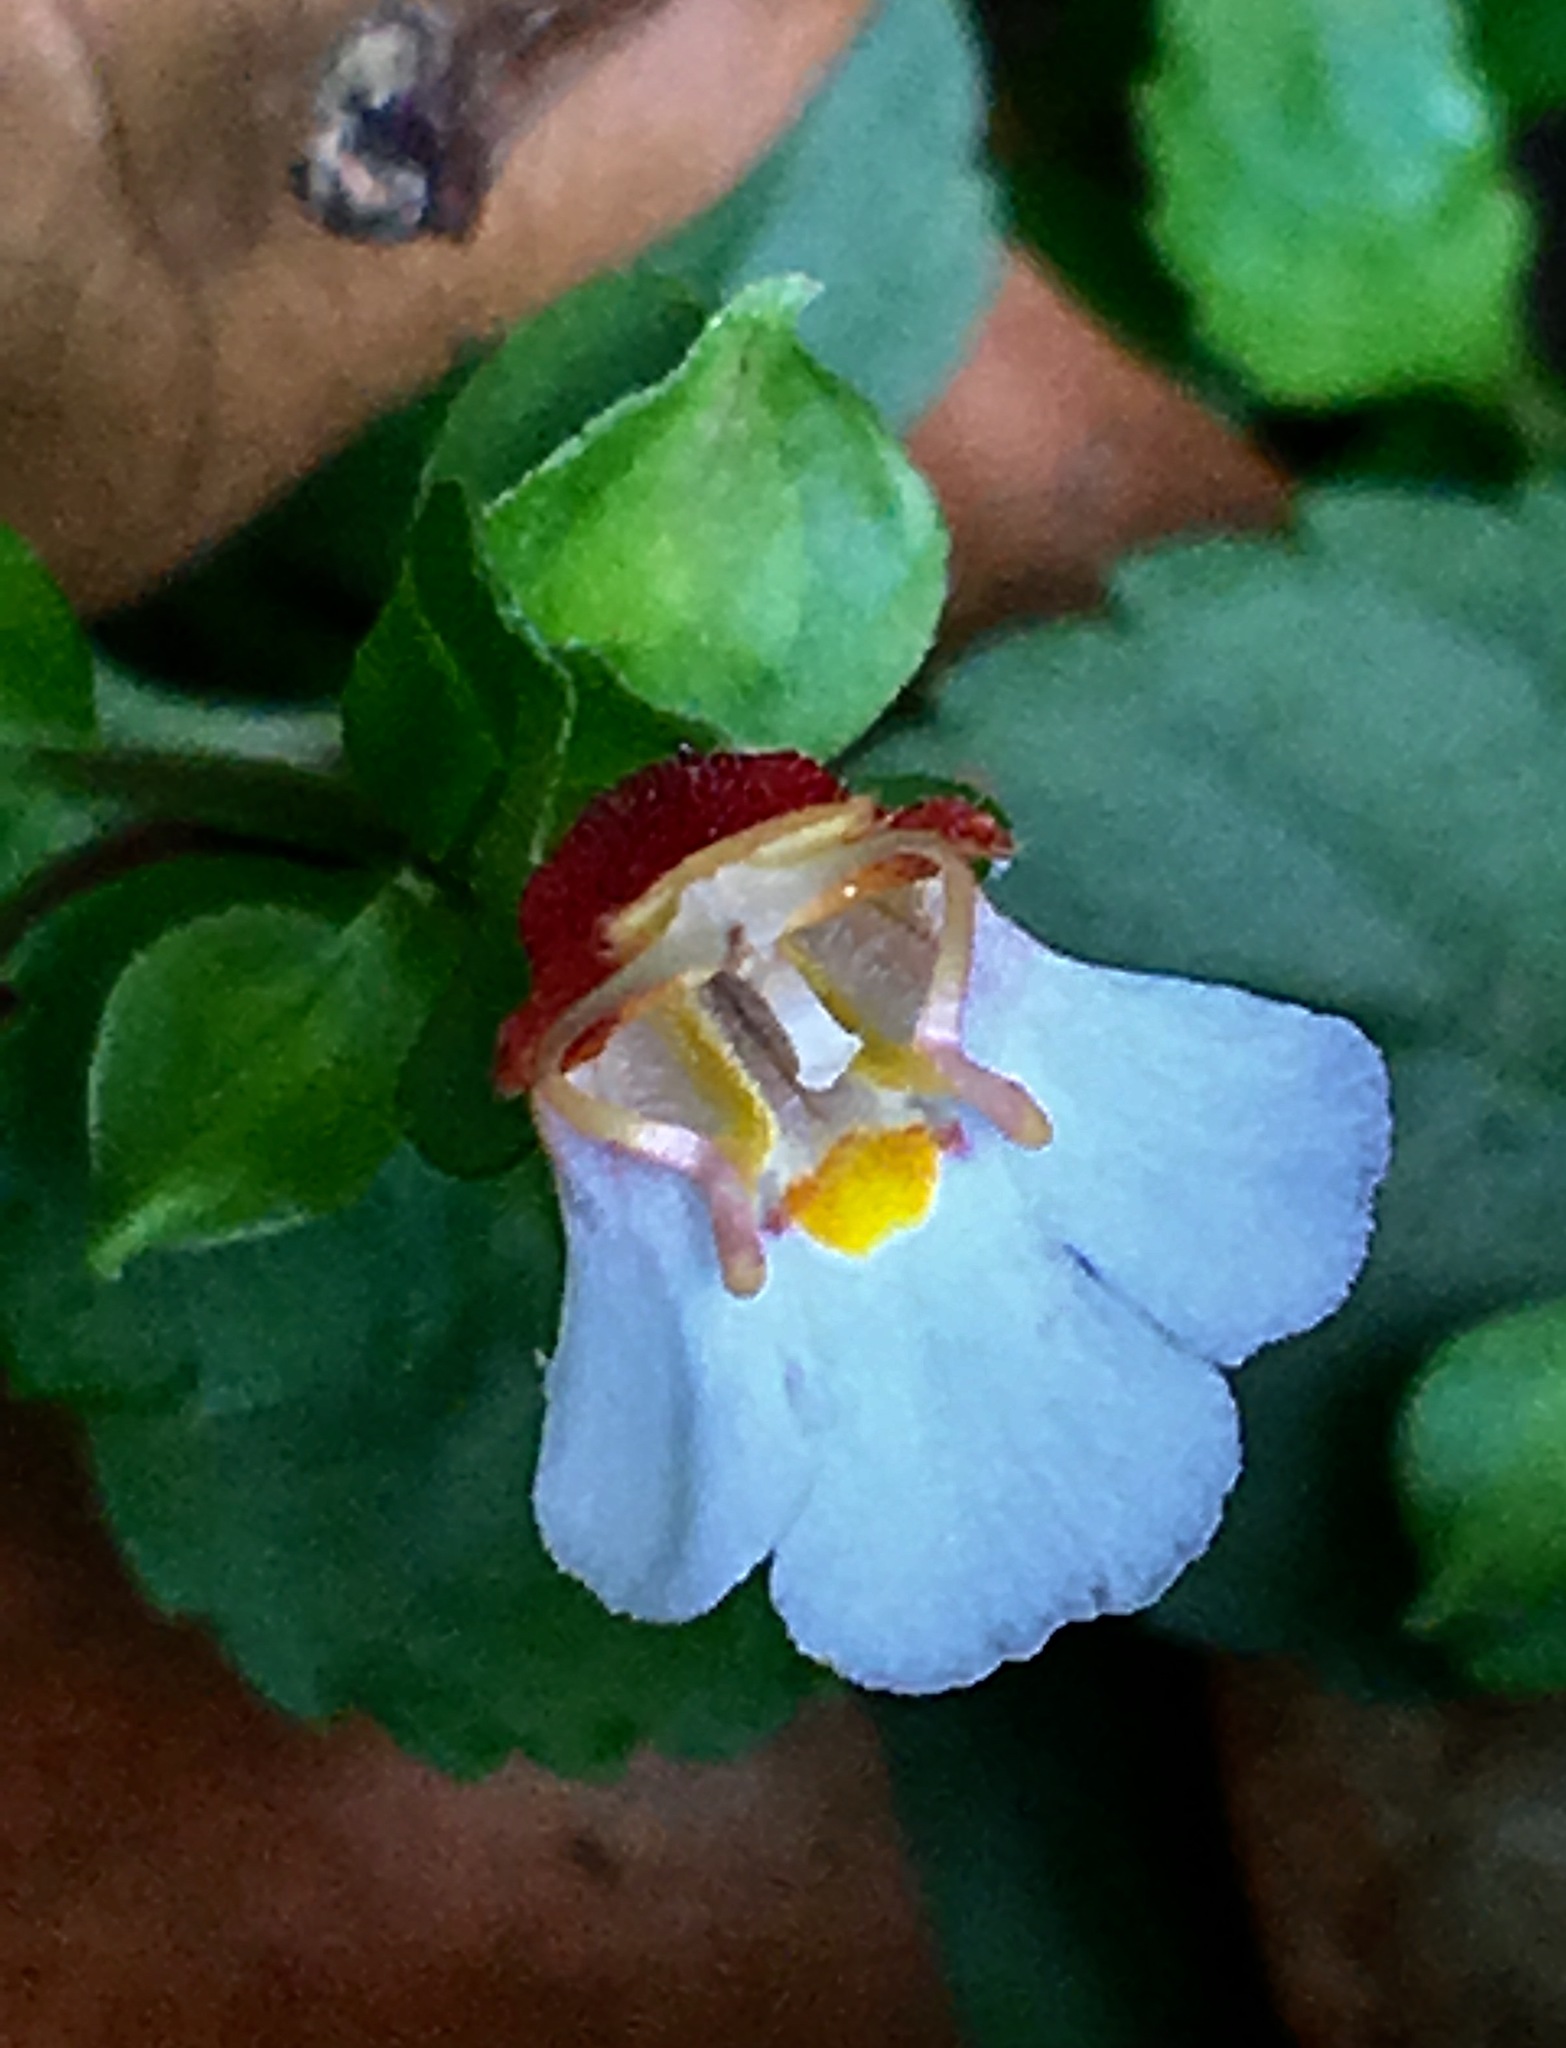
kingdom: Plantae
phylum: Tracheophyta
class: Magnoliopsida
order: Lamiales
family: Linderniaceae
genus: Legazpia
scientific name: Legazpia polygonoides
